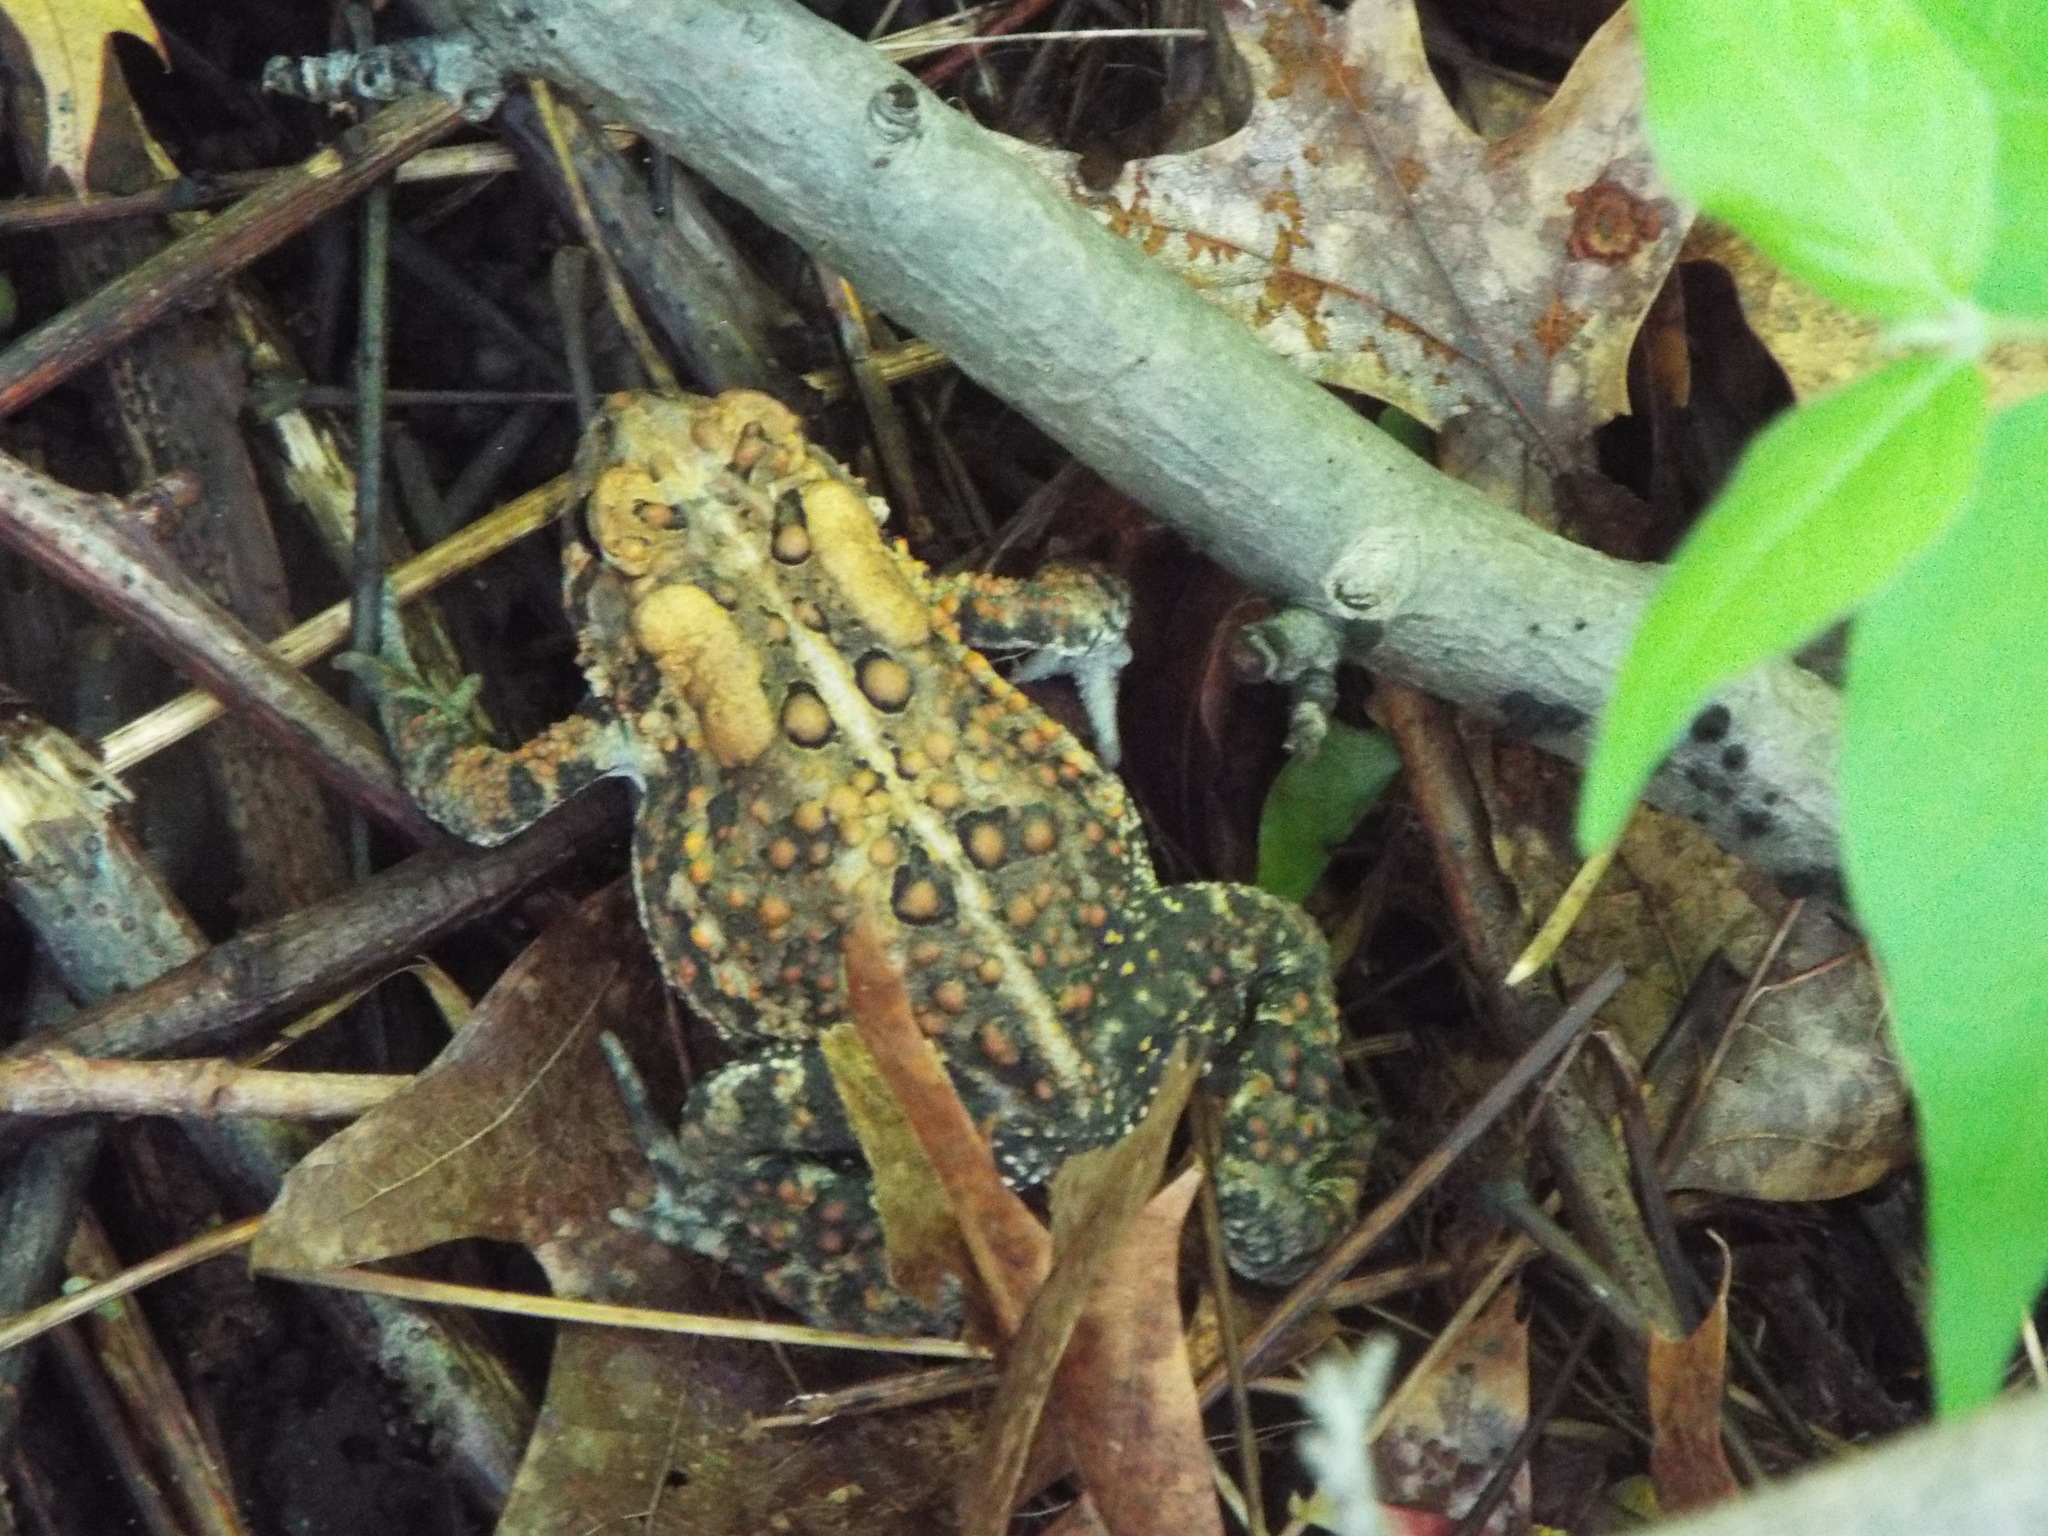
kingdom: Animalia
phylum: Chordata
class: Amphibia
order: Anura
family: Bufonidae
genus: Anaxyrus
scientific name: Anaxyrus americanus
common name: American toad
